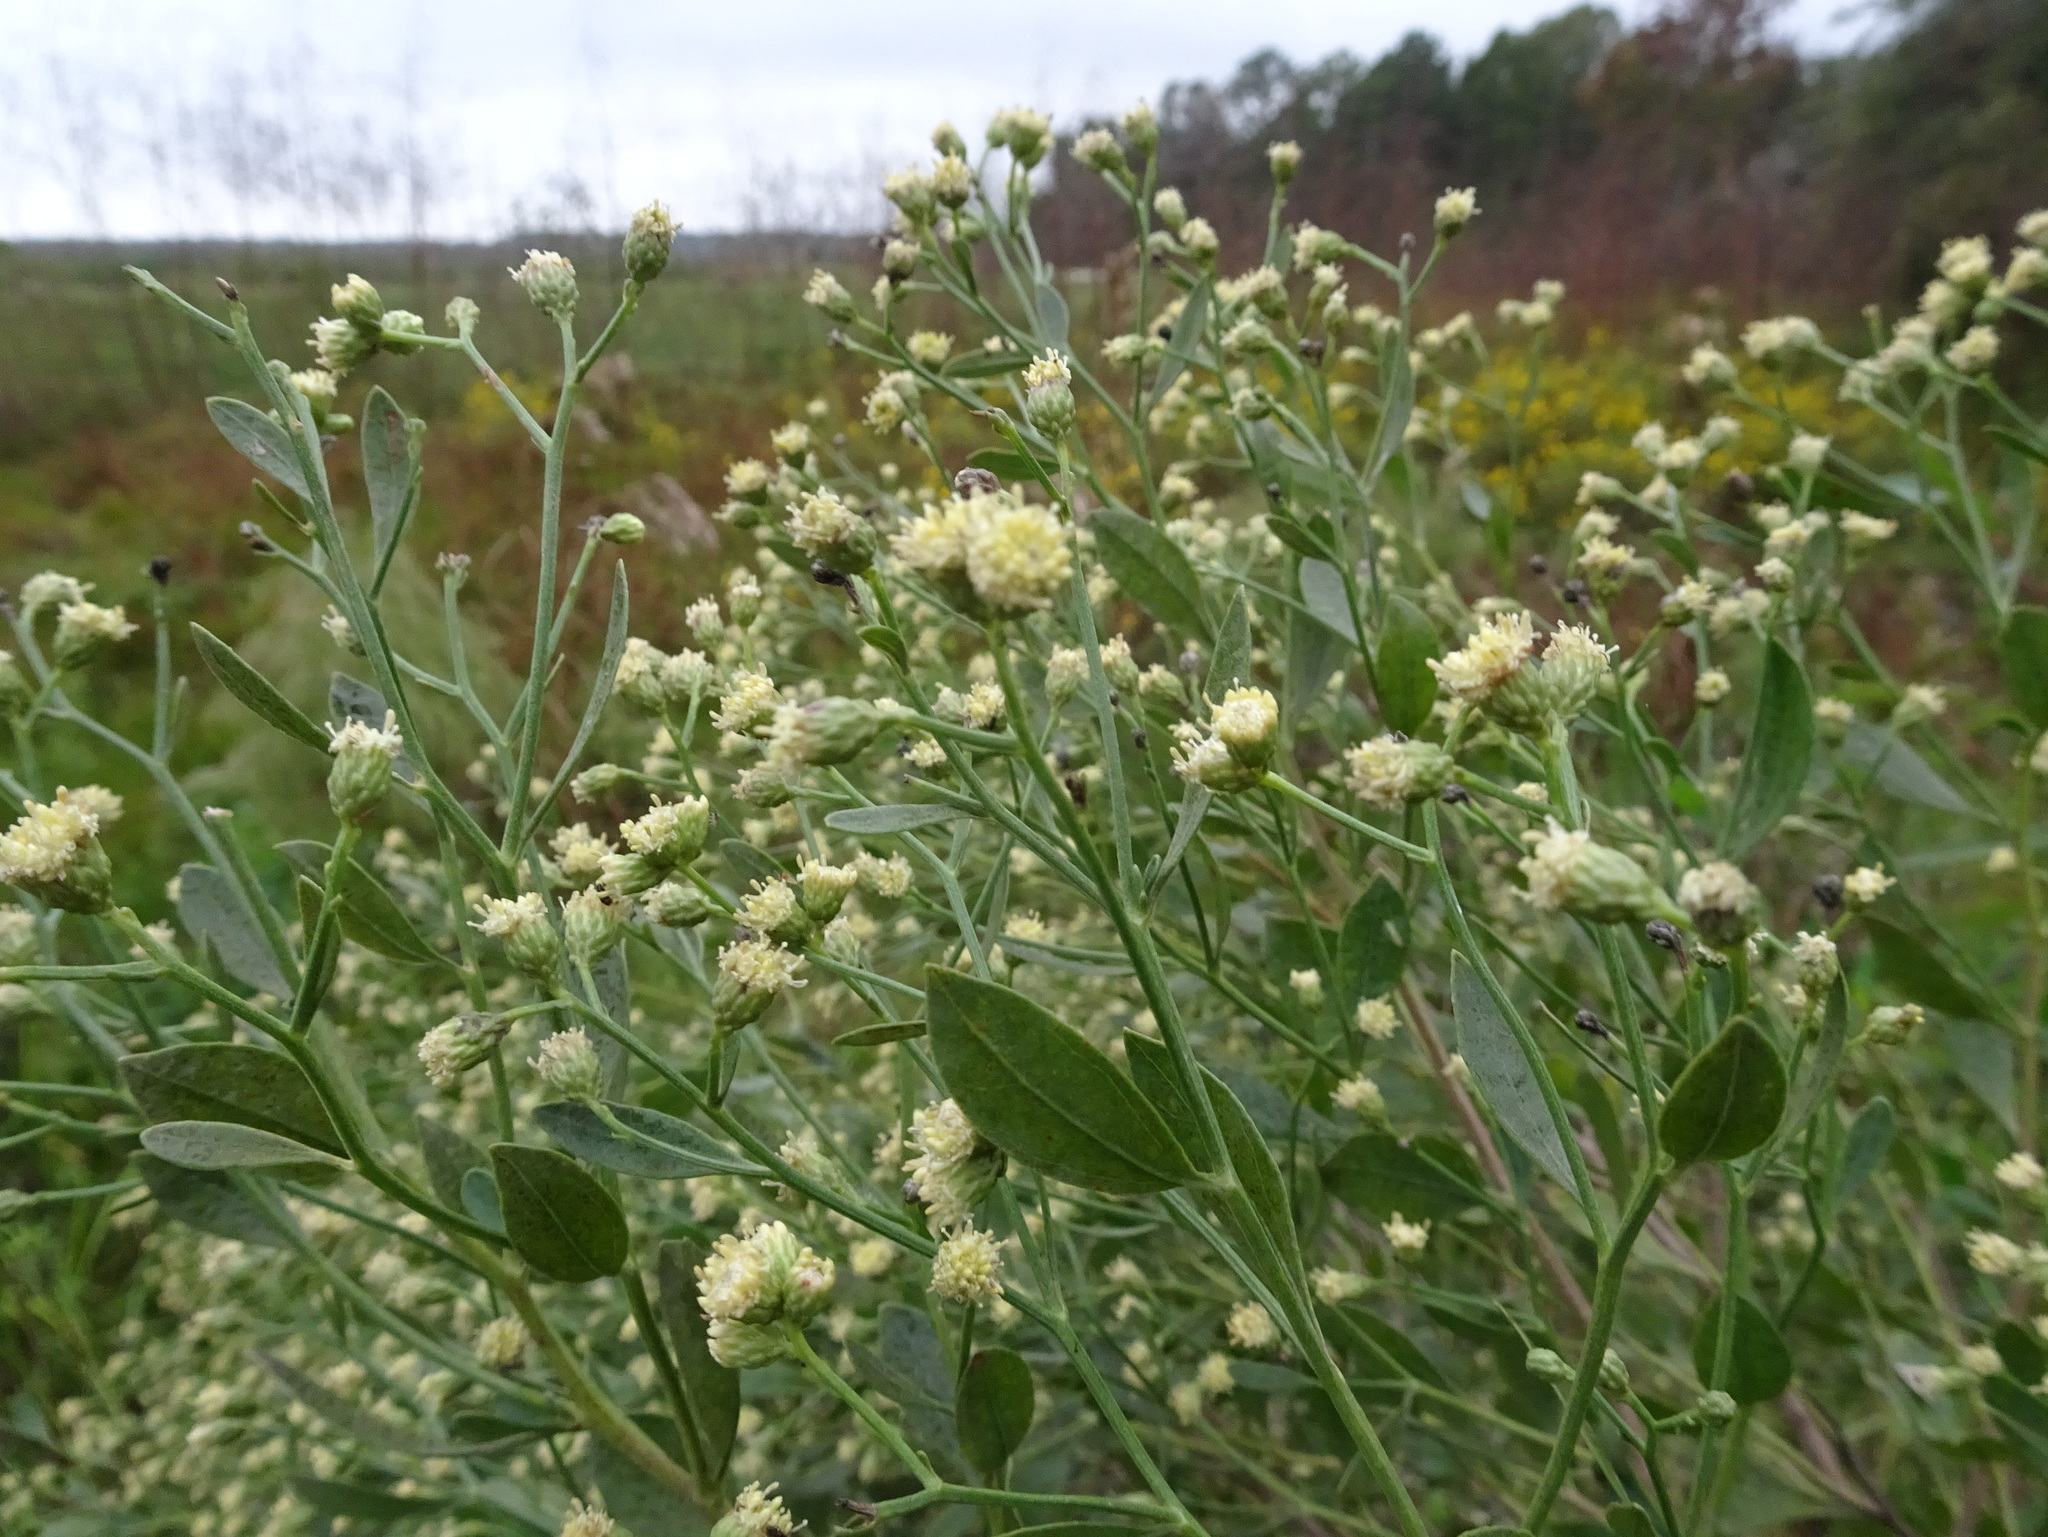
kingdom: Plantae
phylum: Tracheophyta
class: Magnoliopsida
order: Asterales
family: Asteraceae
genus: Baccharis
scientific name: Baccharis halimifolia
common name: Eastern baccharis
